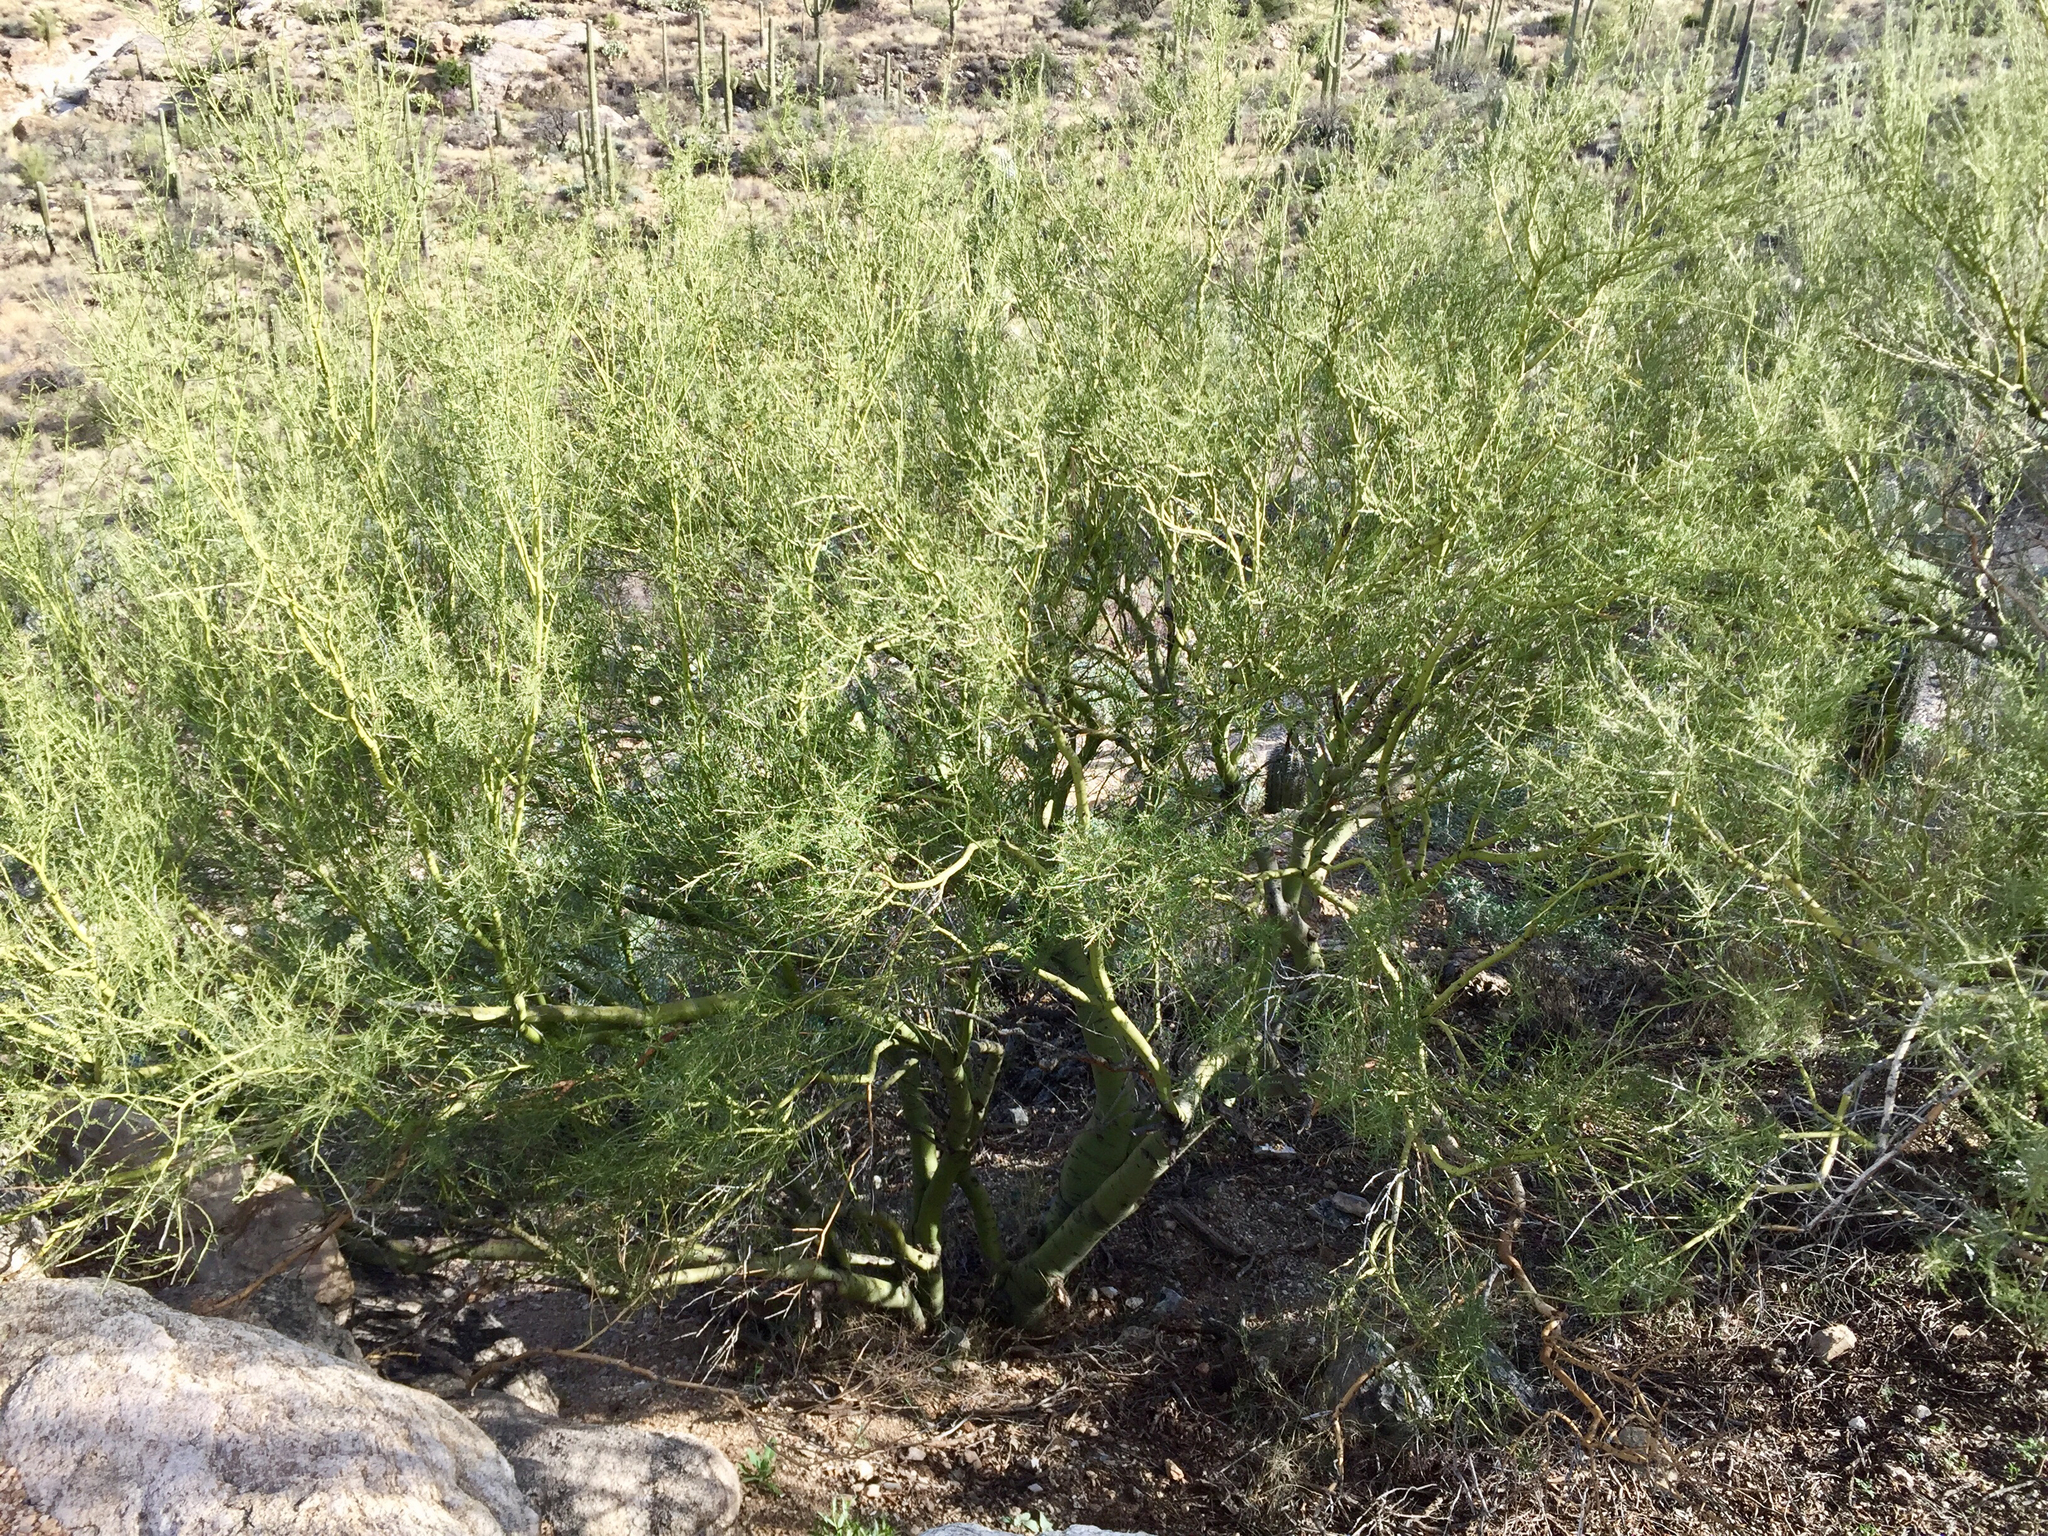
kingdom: Plantae
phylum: Tracheophyta
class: Magnoliopsida
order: Fabales
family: Fabaceae
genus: Parkinsonia
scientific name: Parkinsonia microphylla
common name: Yellow paloverde
